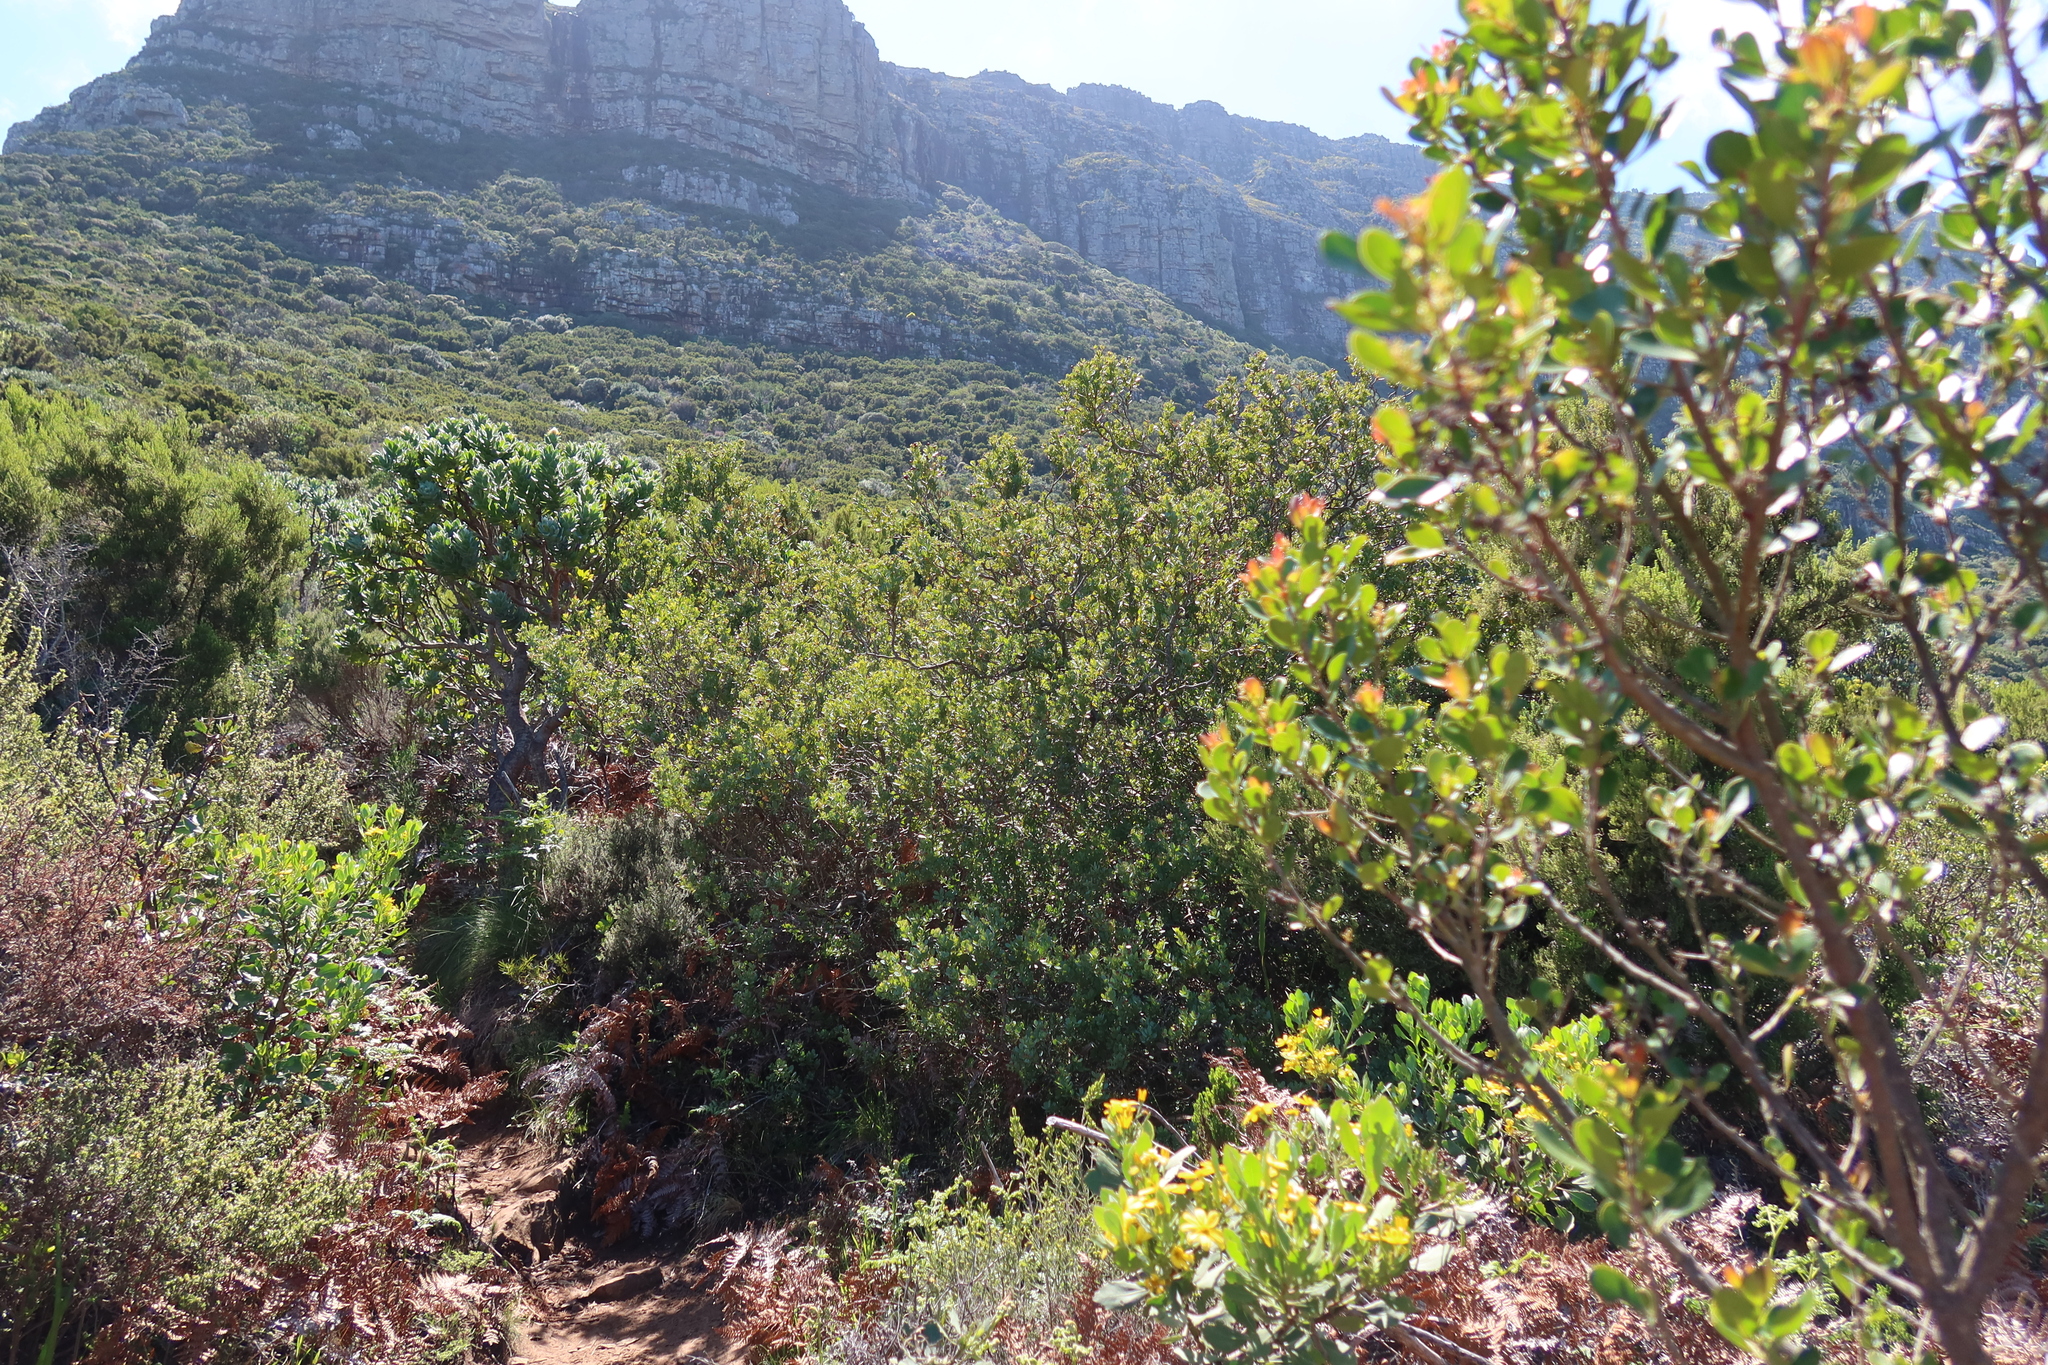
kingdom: Animalia
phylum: Chordata
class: Mammalia
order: Rodentia
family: Muridae
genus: Rhabdomys
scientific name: Rhabdomys pumilio
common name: Xeric four-striped grass rat
